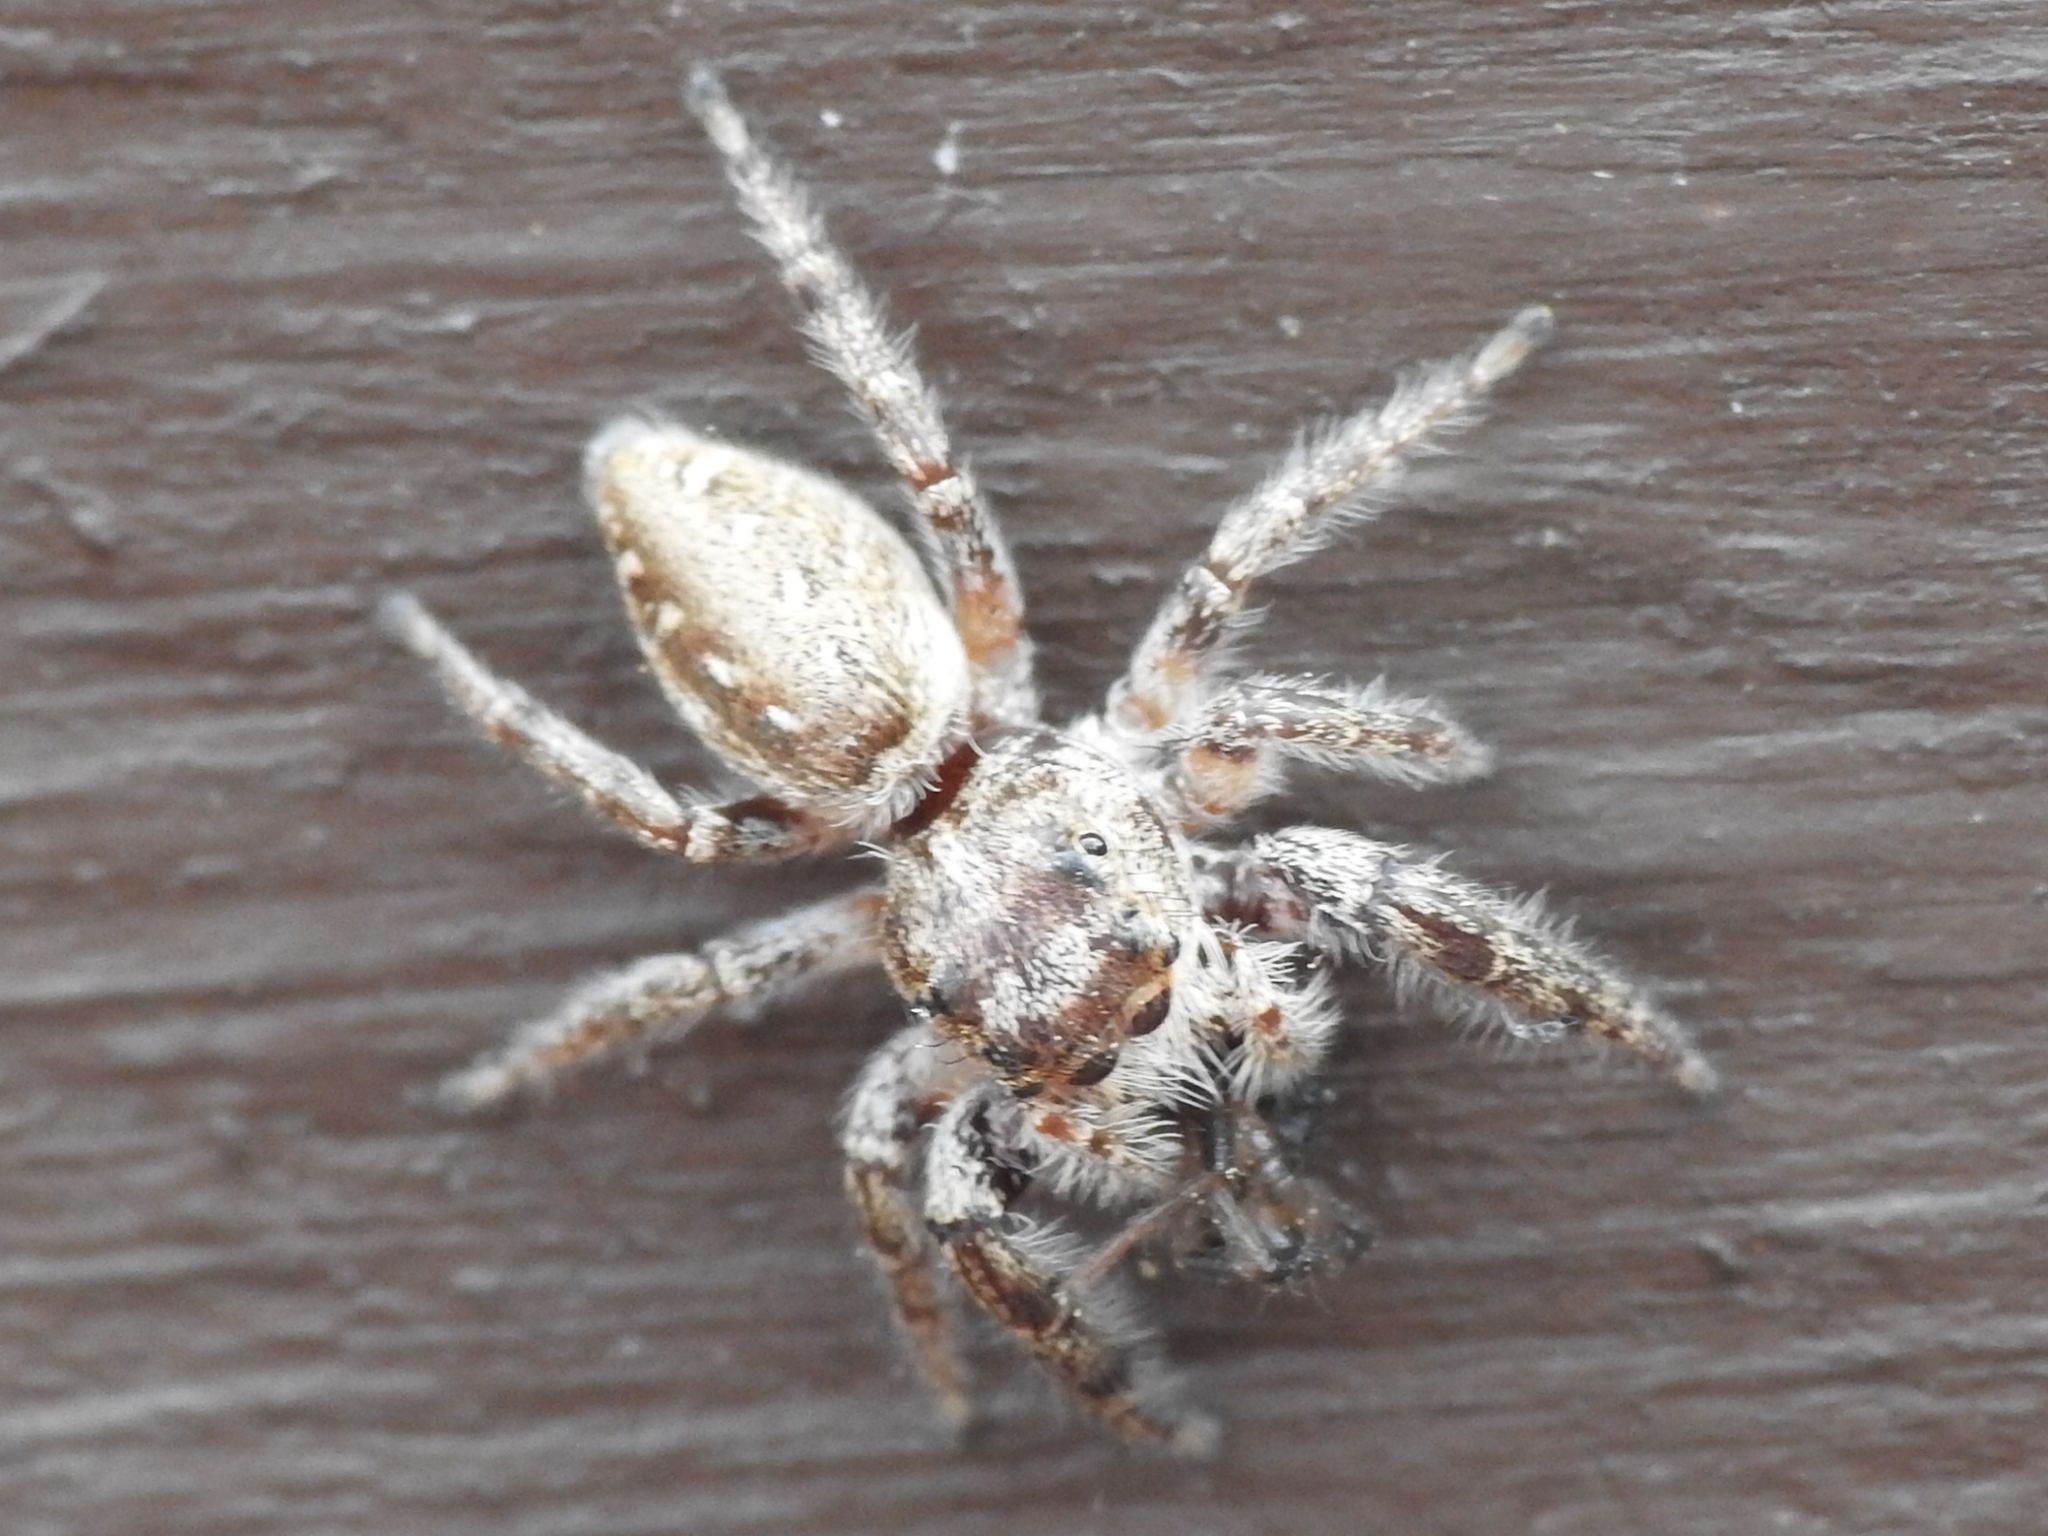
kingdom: Animalia
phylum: Arthropoda
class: Arachnida
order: Araneae
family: Salticidae
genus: Eris
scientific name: Eris militaris
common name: Bronze jumper
